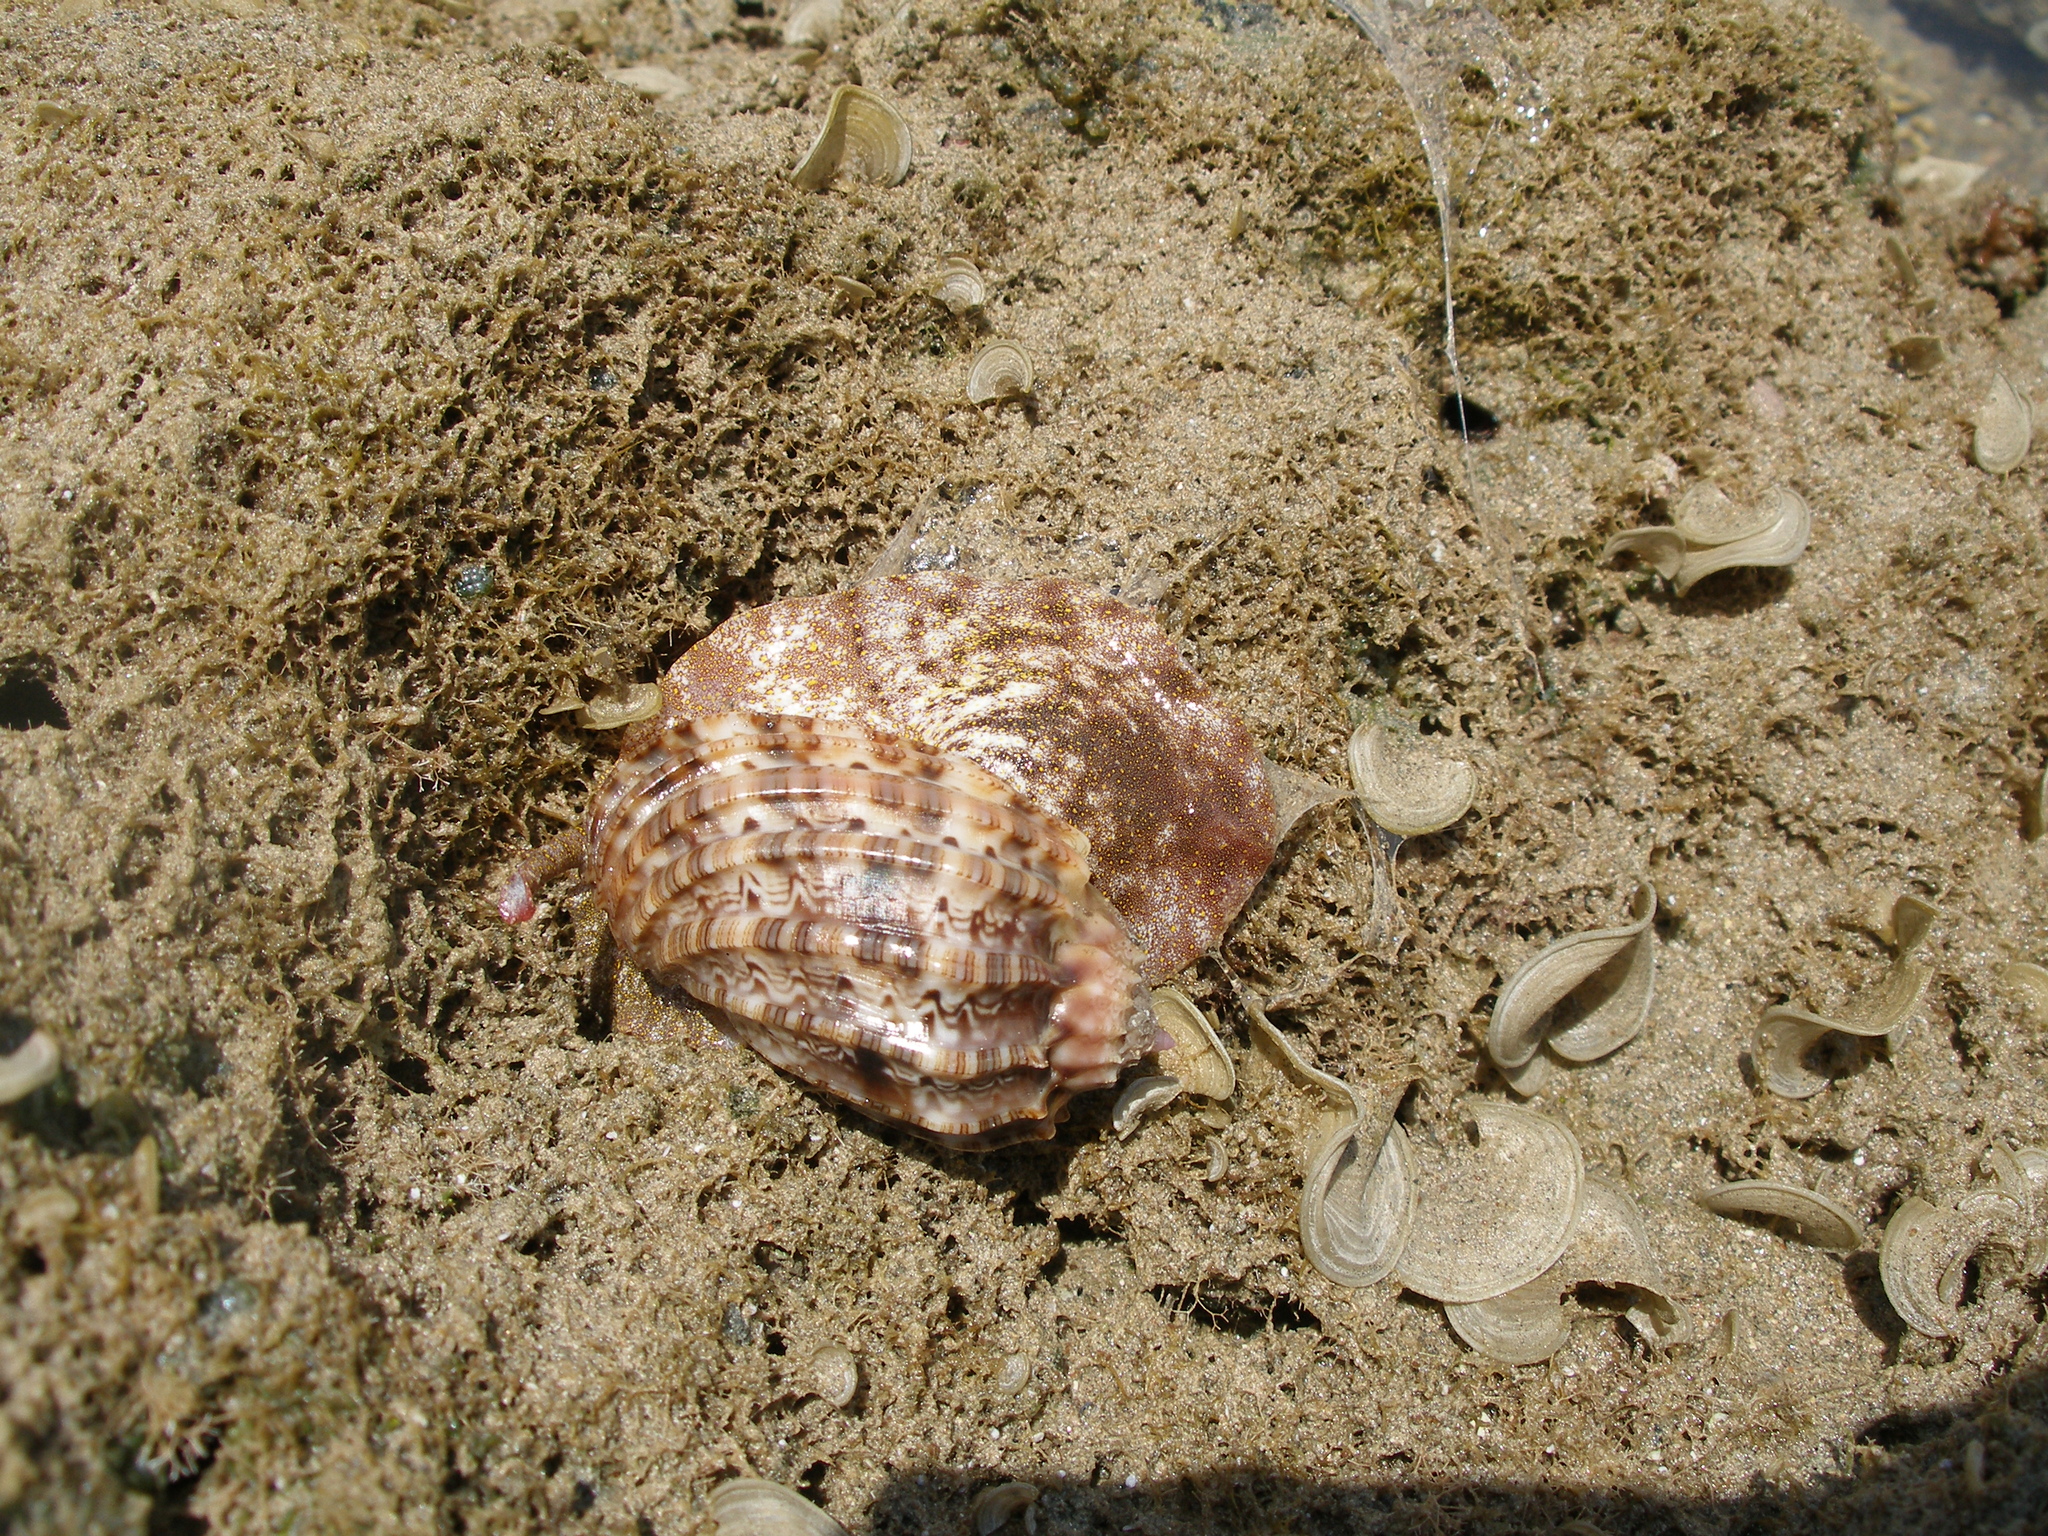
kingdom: Animalia
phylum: Mollusca
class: Gastropoda
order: Neogastropoda
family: Harpidae
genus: Harpa
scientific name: Harpa amouretta
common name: Lesser harp
